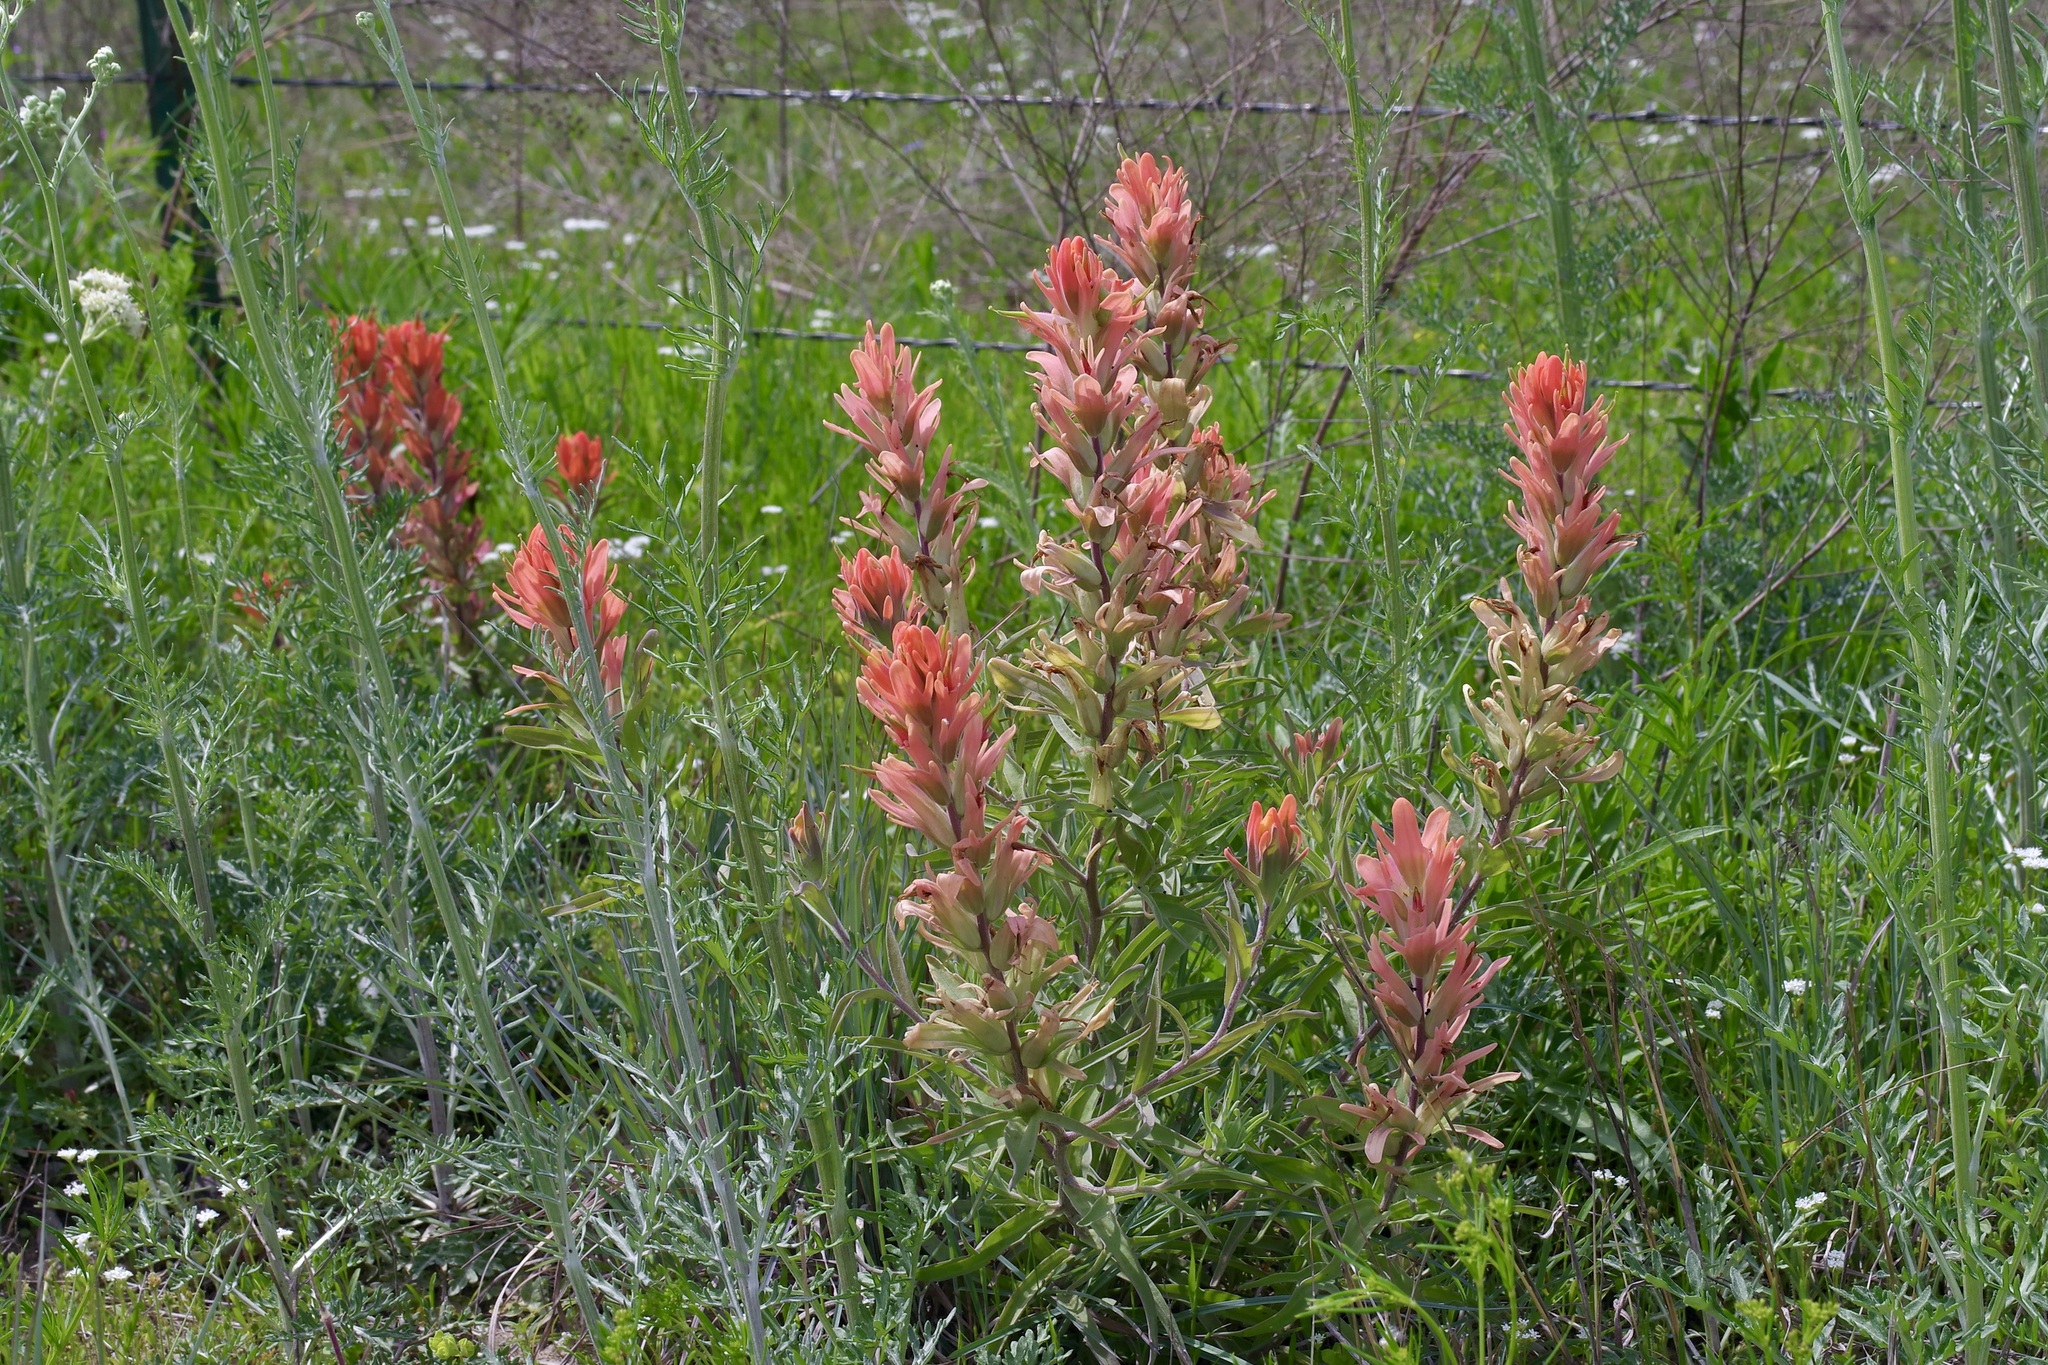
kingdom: Plantae
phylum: Tracheophyta
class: Magnoliopsida
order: Lamiales
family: Orobanchaceae
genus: Castilleja
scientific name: Castilleja lindheimeri
